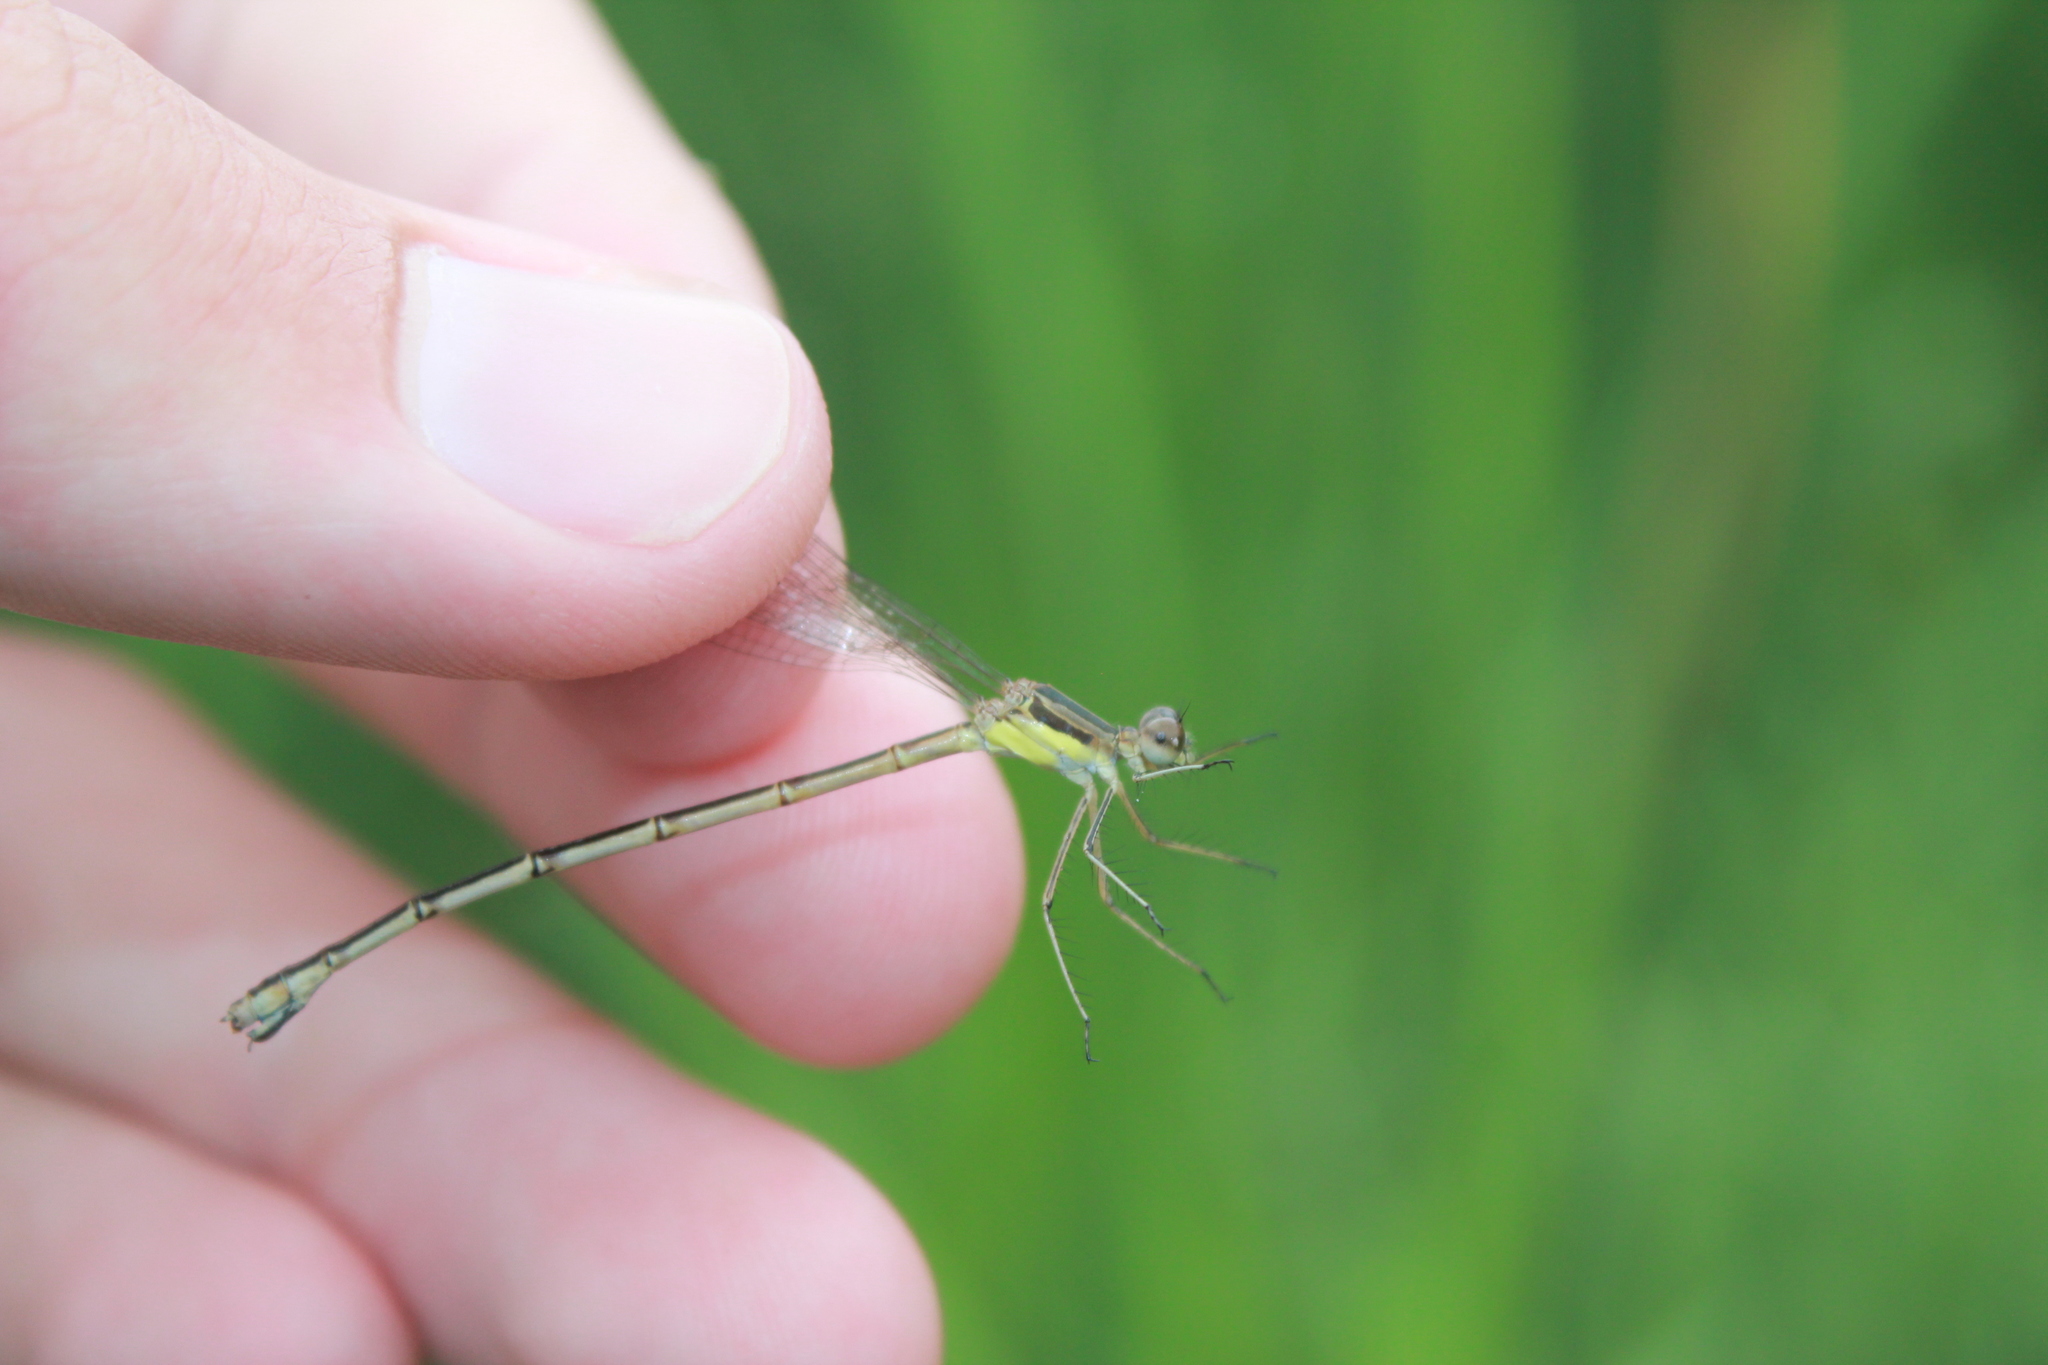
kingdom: Animalia
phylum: Arthropoda
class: Insecta
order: Odonata
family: Lestidae
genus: Lestes
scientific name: Lestes rectangularis
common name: Slender spreadwing
